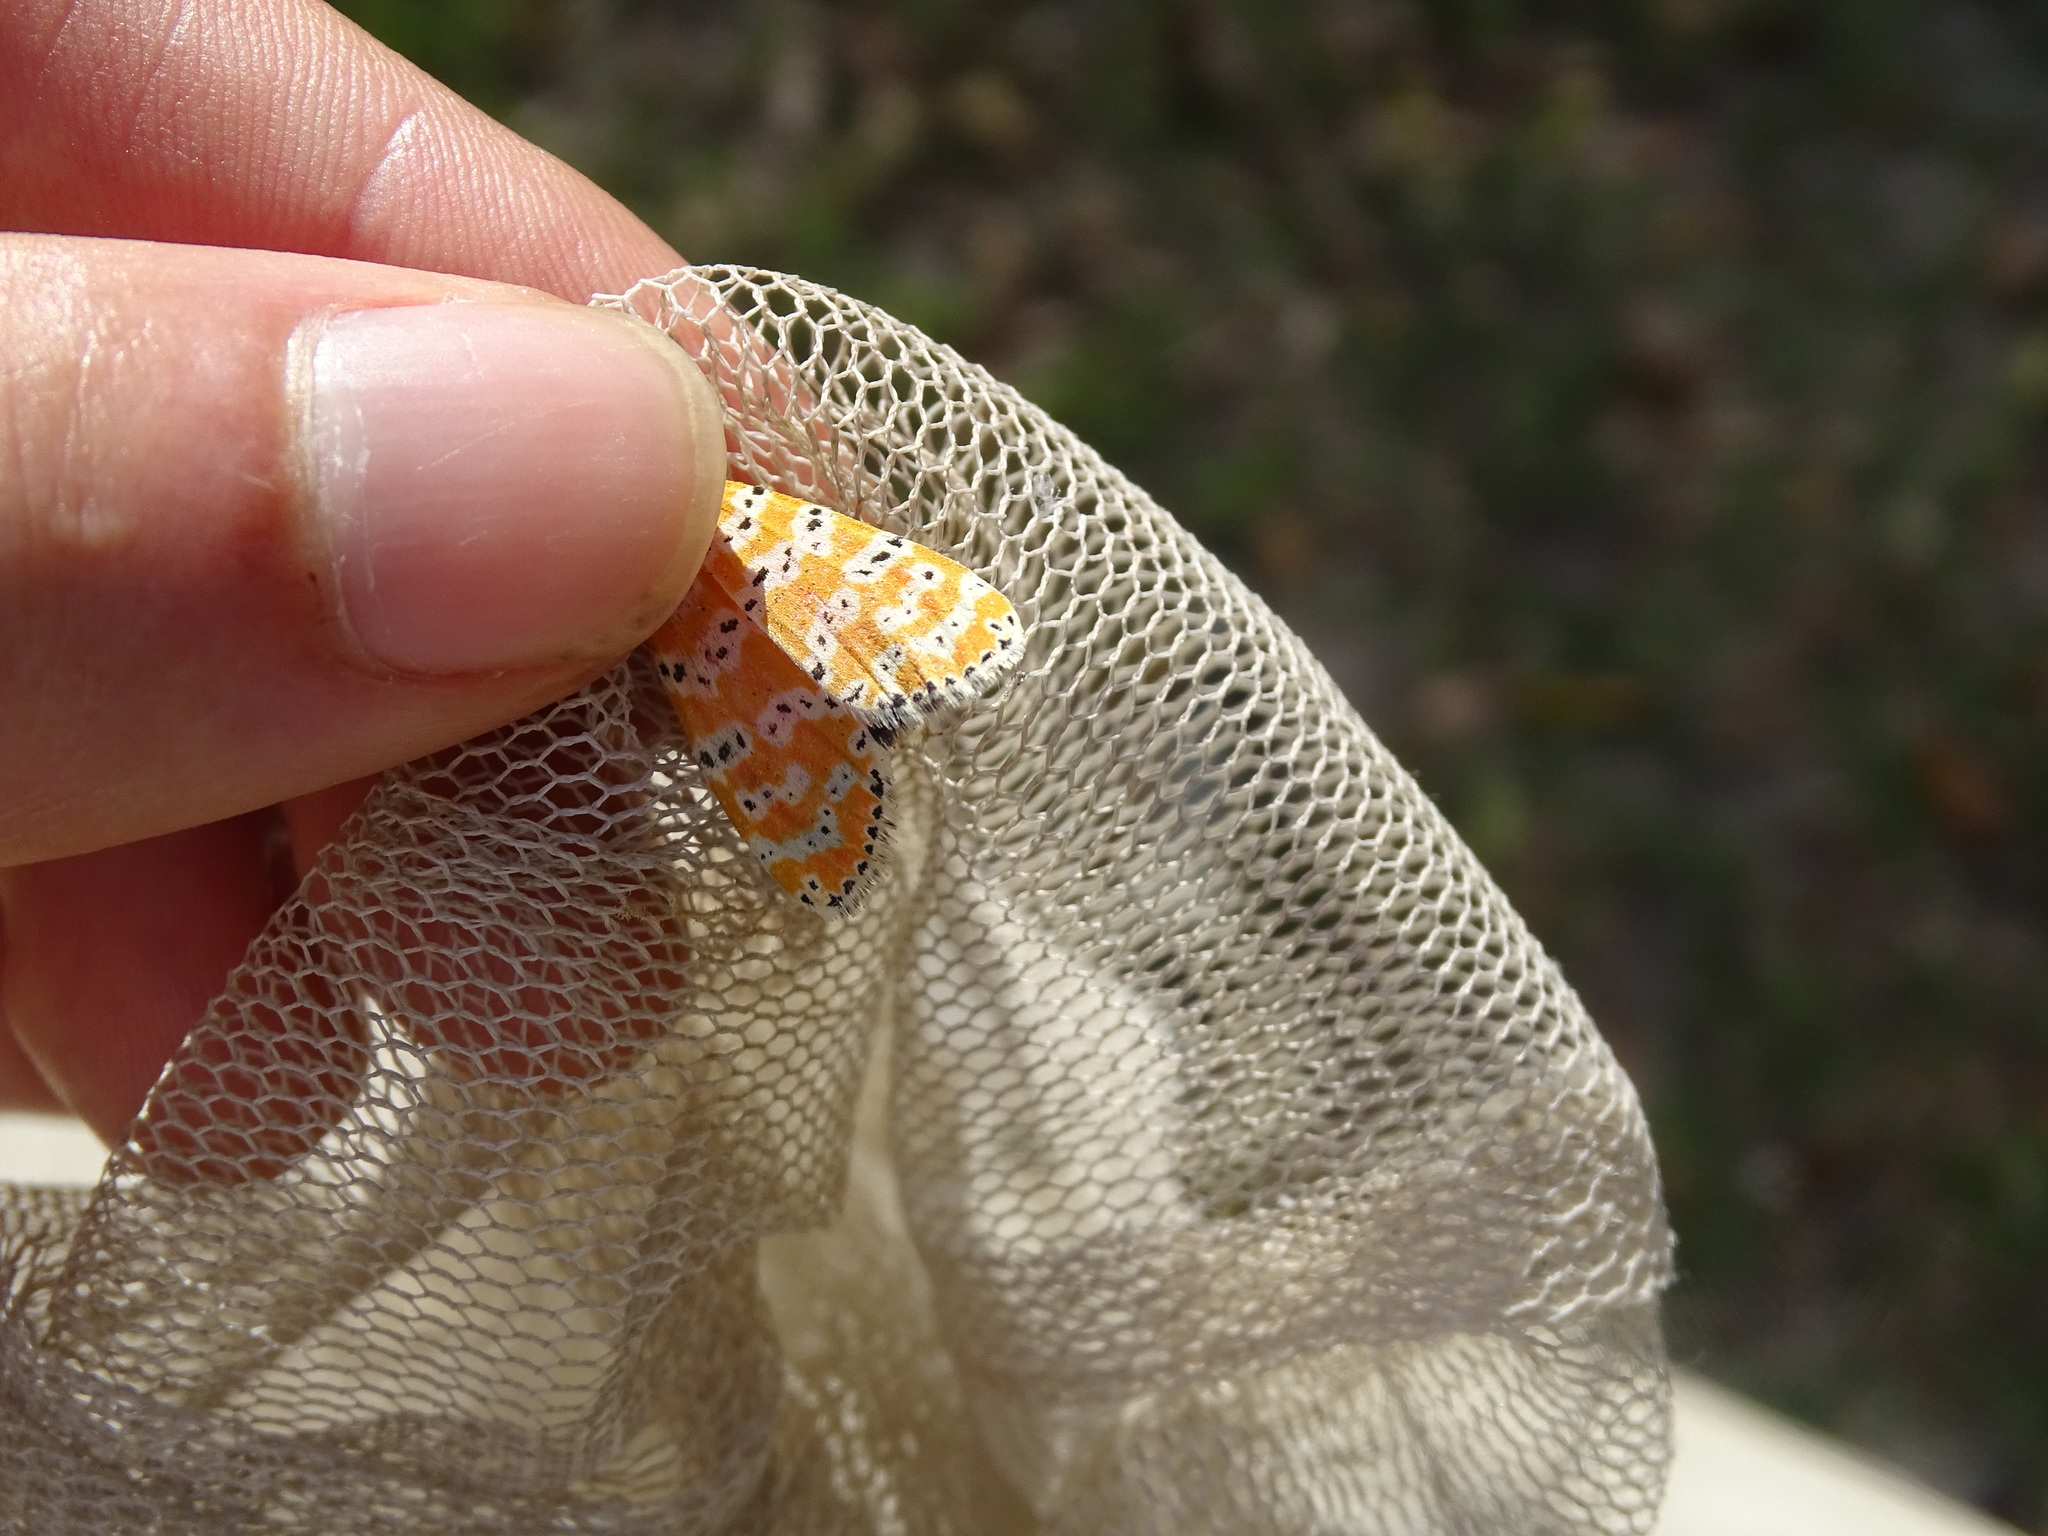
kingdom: Animalia
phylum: Arthropoda
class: Insecta
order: Lepidoptera
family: Erebidae
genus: Utetheisa
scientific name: Utetheisa ornatrix
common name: Beautiful utetheisa
